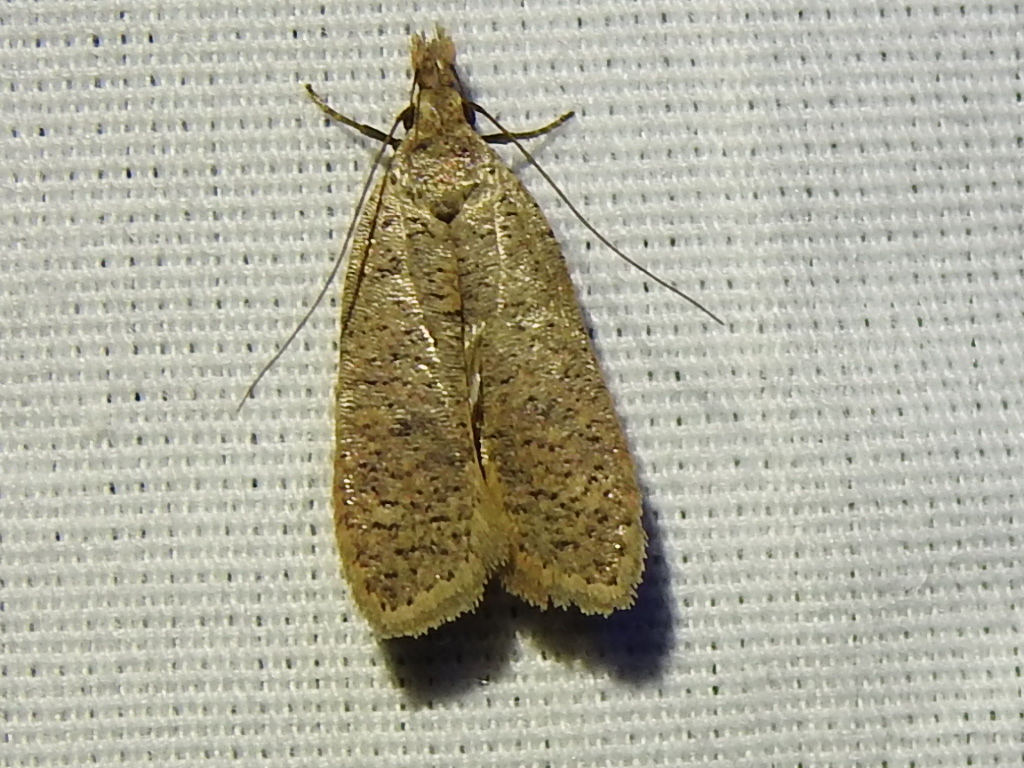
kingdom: Animalia
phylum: Arthropoda
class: Insecta
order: Lepidoptera
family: Gelechiidae
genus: Dichomeris
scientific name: Dichomeris georgiella
